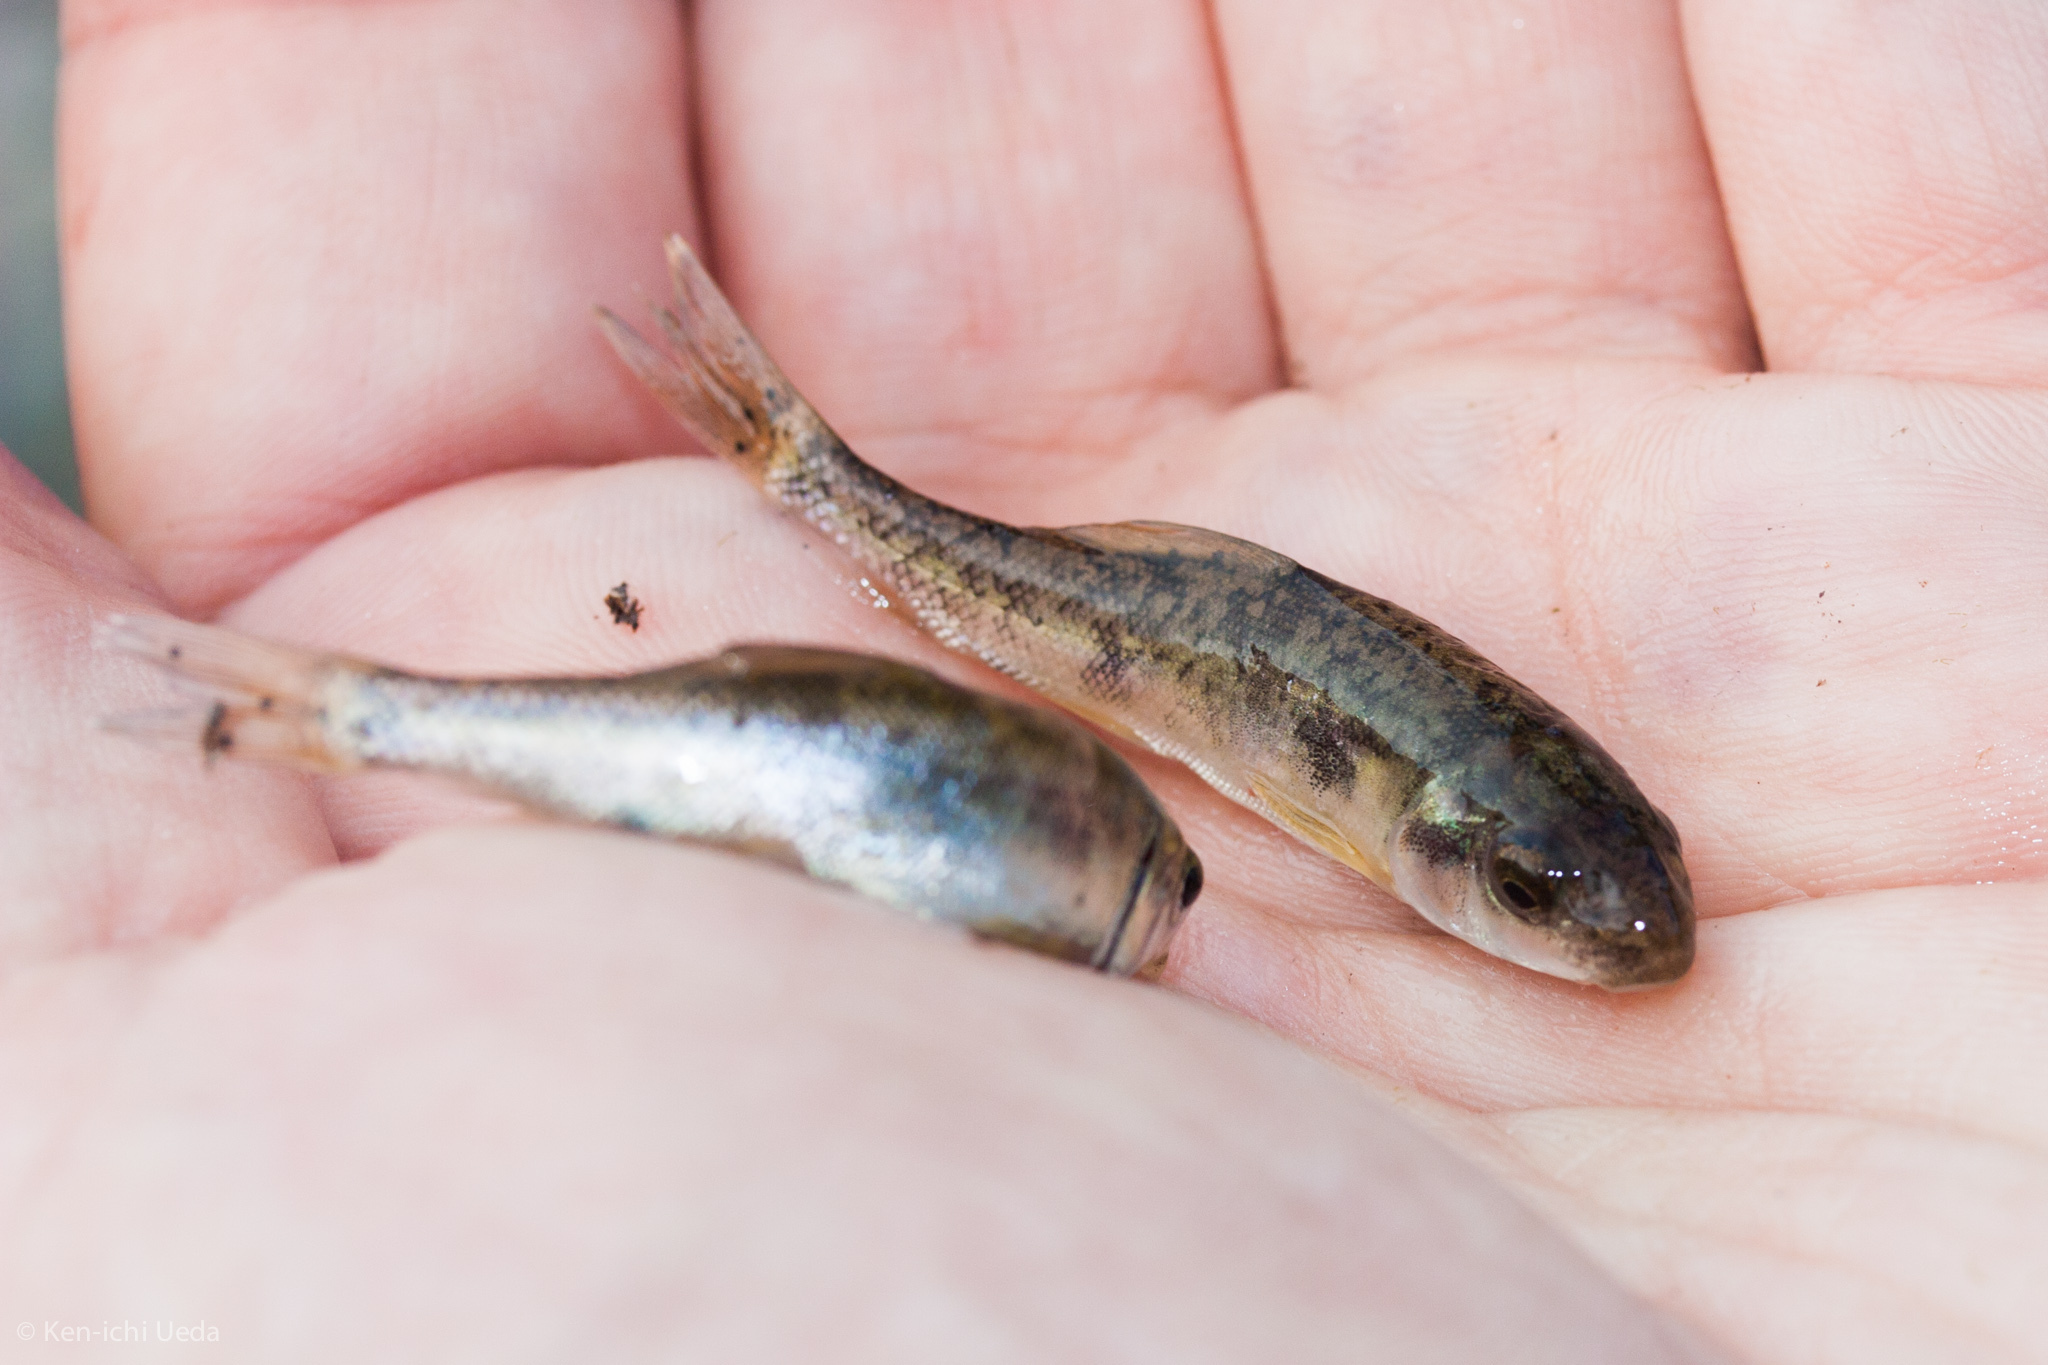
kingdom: Animalia
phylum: Chordata
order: Cypriniformes
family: Catostomidae
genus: Catostomus
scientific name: Catostomus occidentalis
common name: Goose lake sucker
